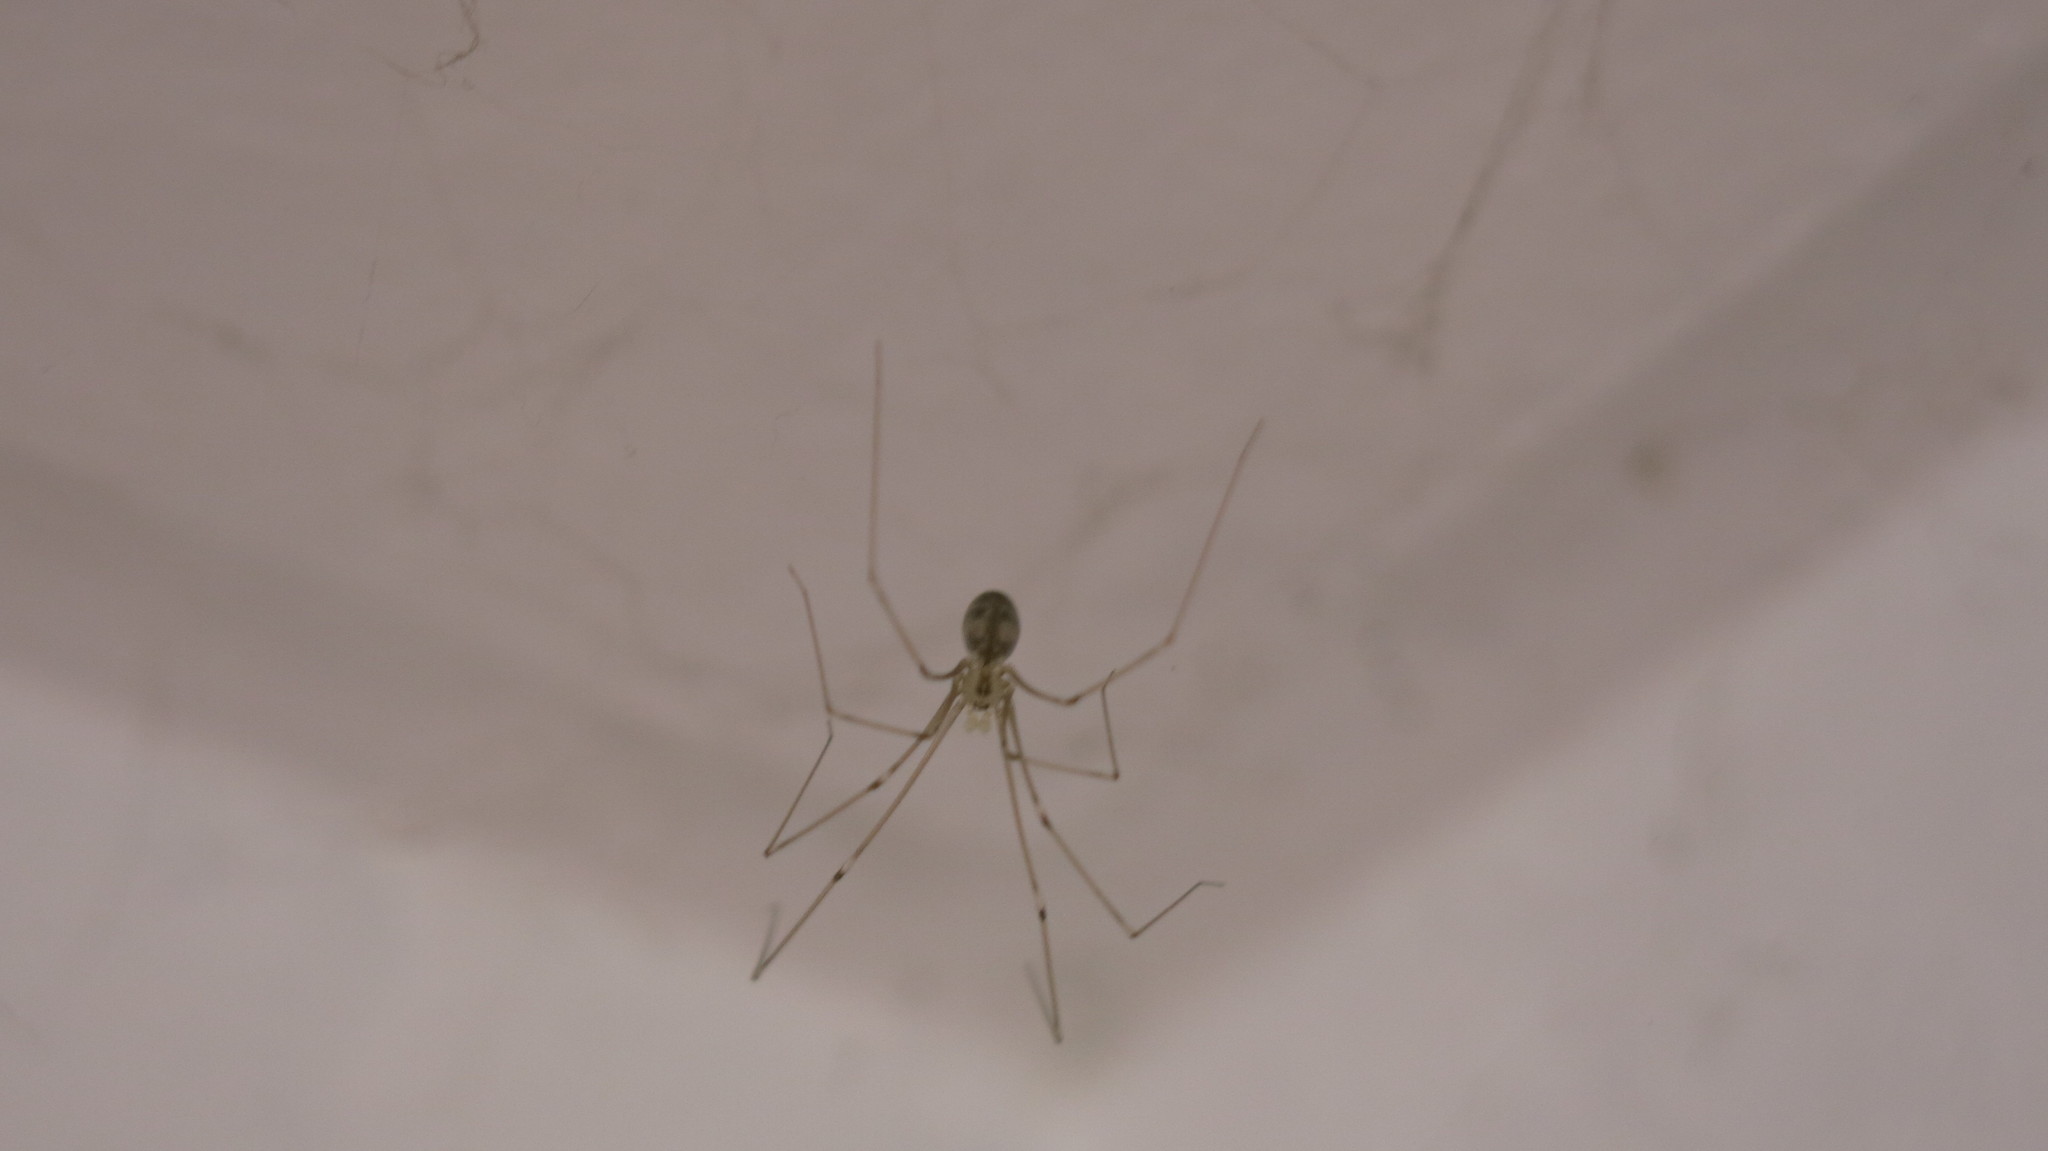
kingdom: Animalia
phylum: Arthropoda
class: Arachnida
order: Araneae
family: Pholcidae
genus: Pholcus
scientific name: Pholcus phalangioides
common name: Longbodied cellar spider
